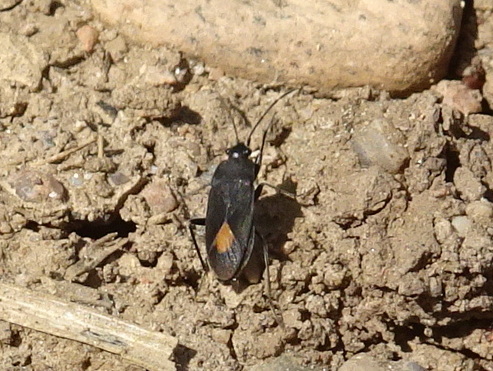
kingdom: Animalia
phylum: Arthropoda
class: Insecta
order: Hemiptera
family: Rhyparochromidae
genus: Aphanus
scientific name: Aphanus rolandri
